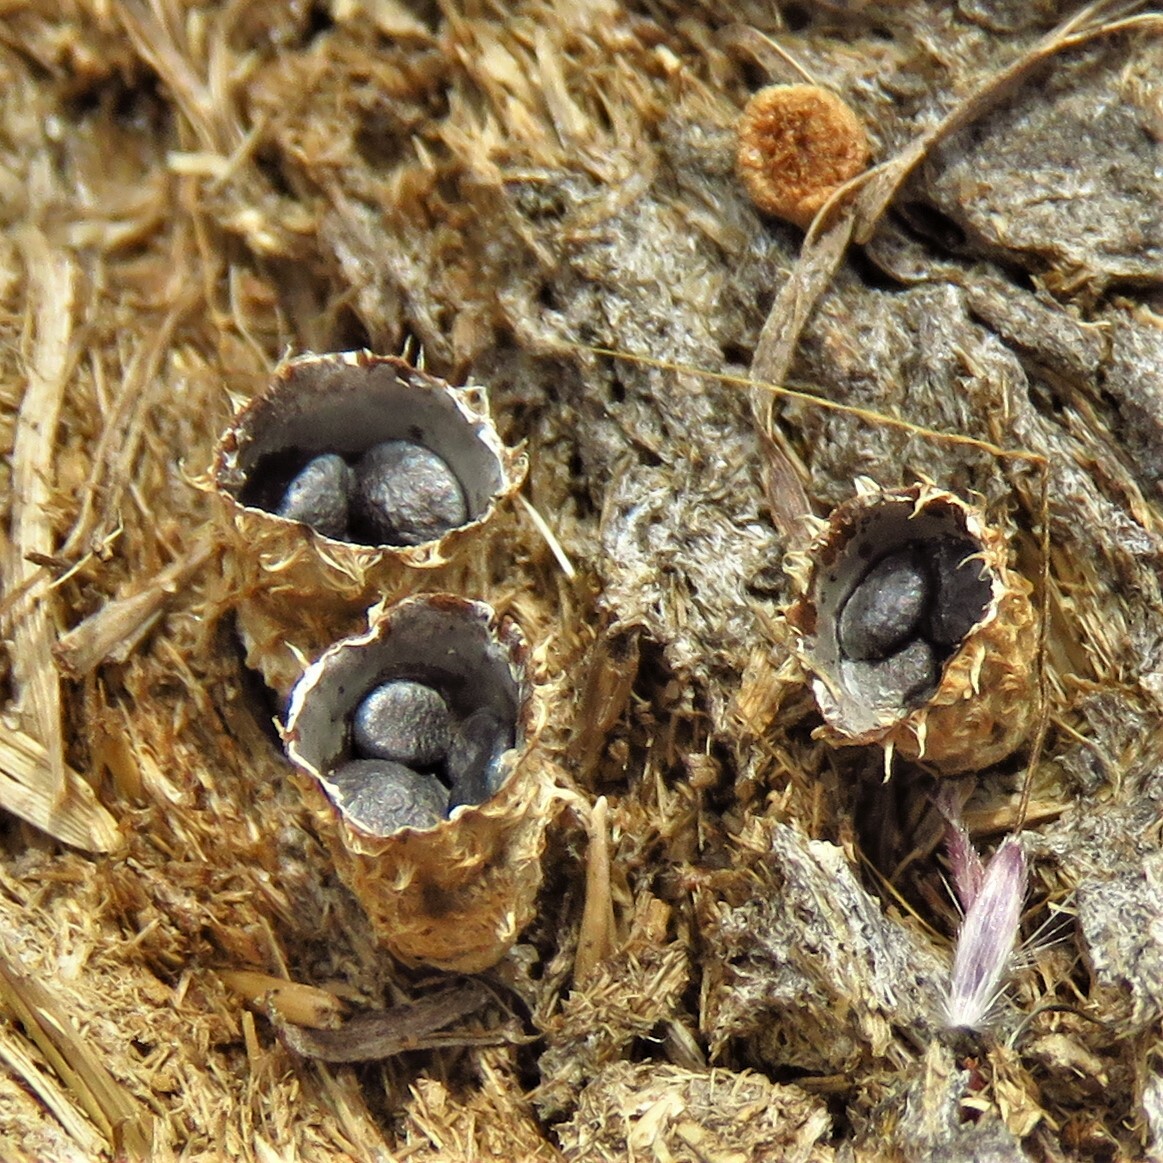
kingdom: Fungi
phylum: Basidiomycota
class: Agaricomycetes
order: Agaricales
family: Agaricaceae
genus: Cyathus
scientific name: Cyathus stercoreus
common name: Dung bird's nest
